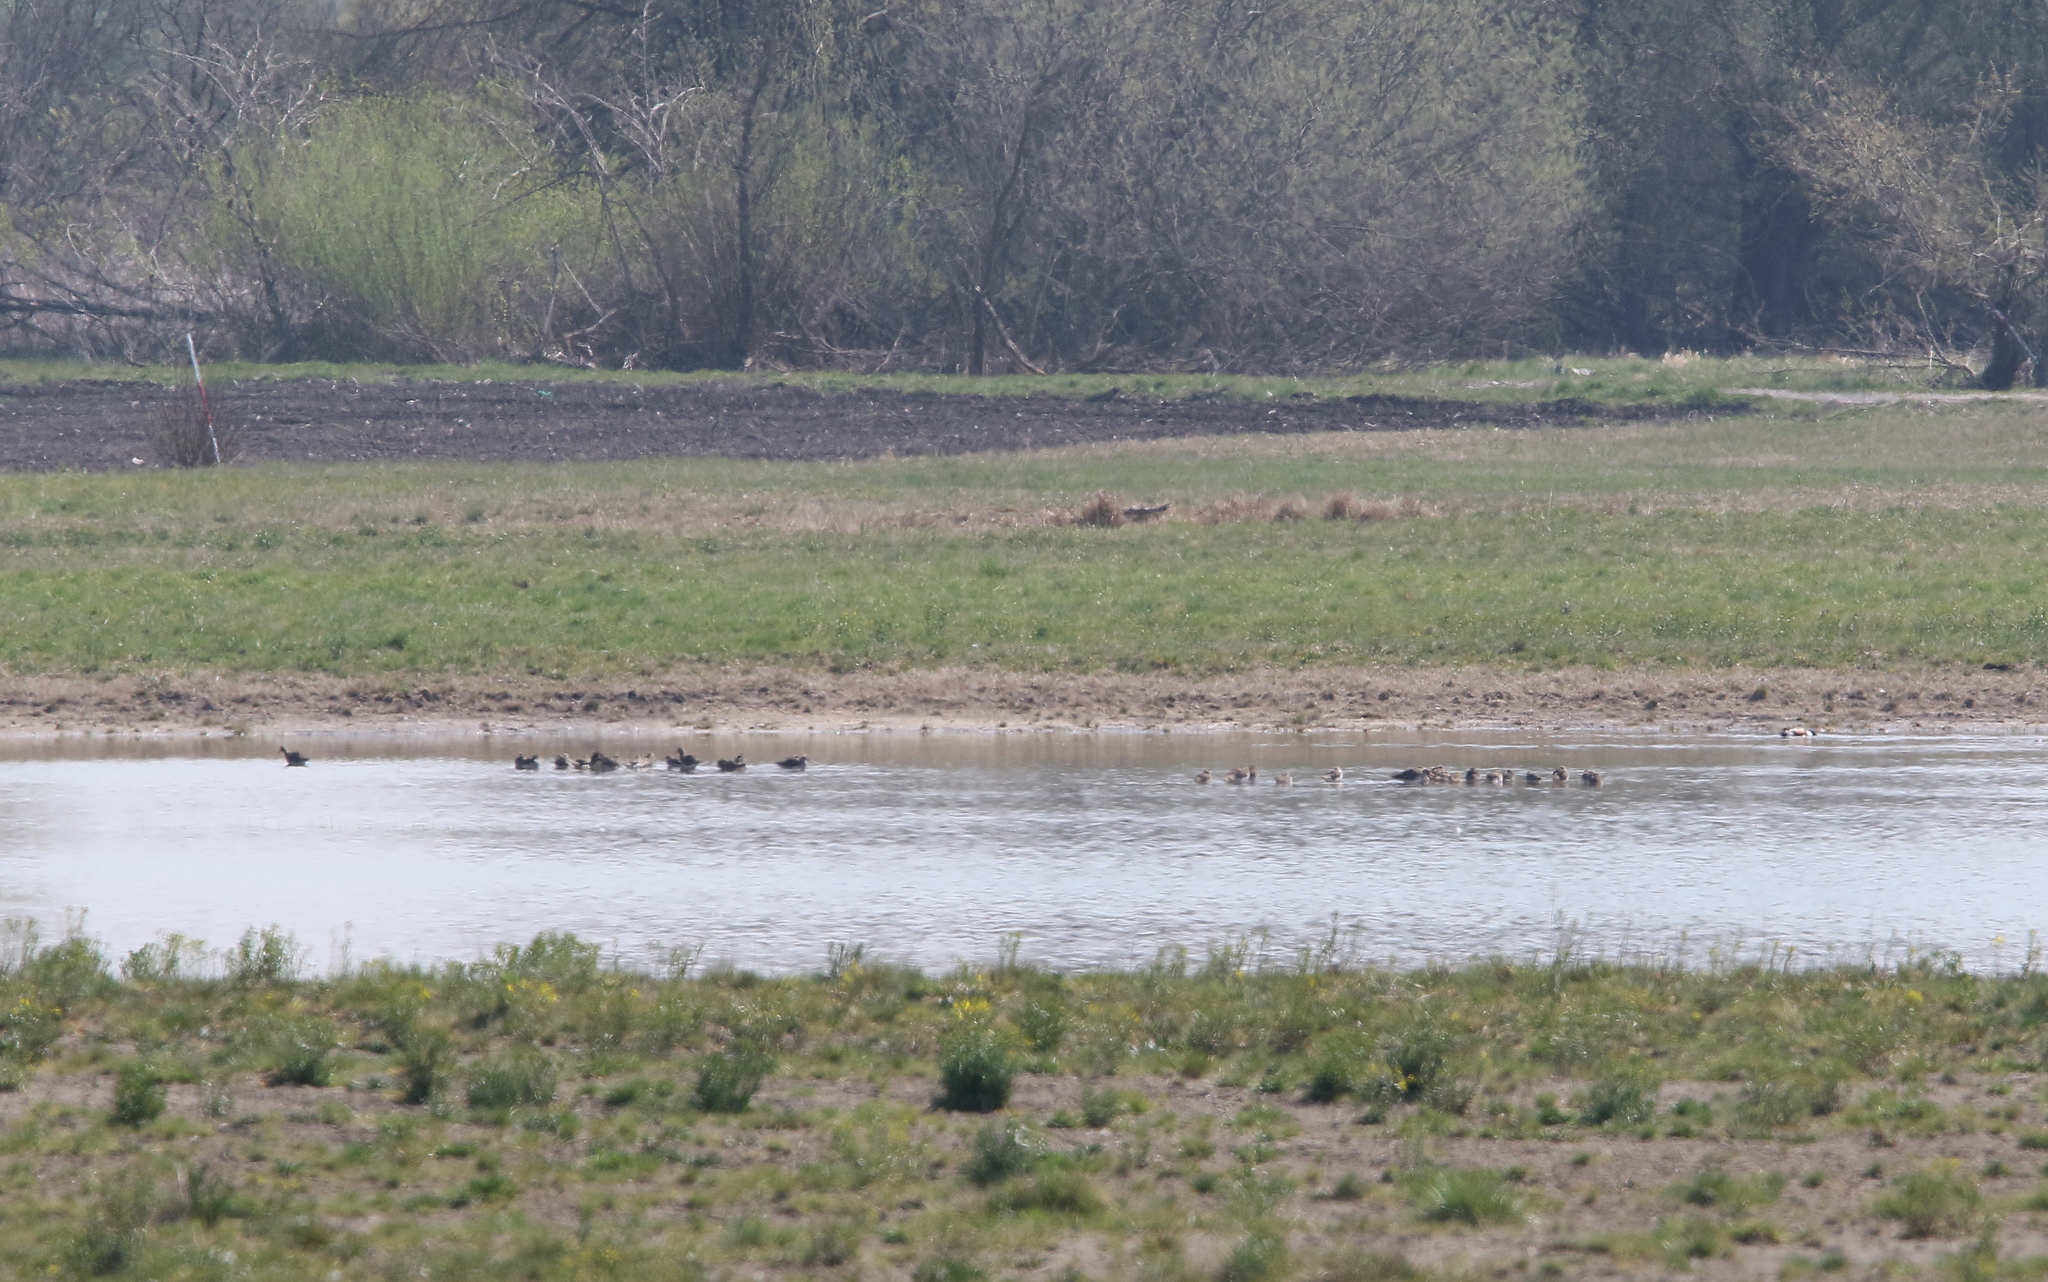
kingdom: Animalia
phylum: Chordata
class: Aves
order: Charadriiformes
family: Scolopacidae
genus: Calidris
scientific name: Calidris pugnax
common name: Ruff
